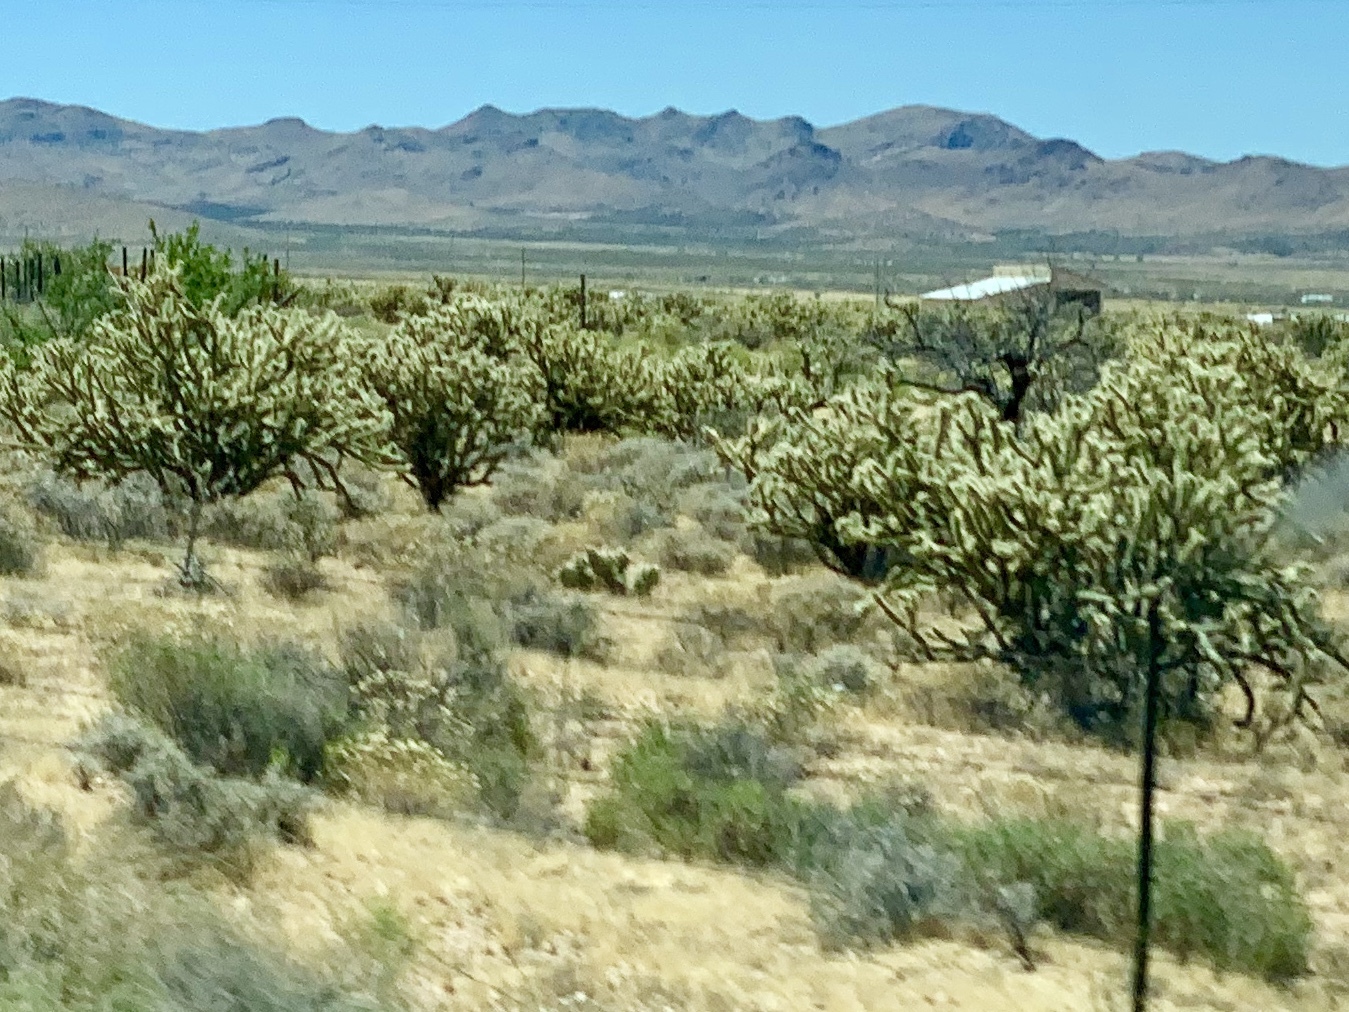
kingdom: Plantae
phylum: Tracheophyta
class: Magnoliopsida
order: Caryophyllales
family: Cactaceae
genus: Cylindropuntia
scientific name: Cylindropuntia acanthocarpa
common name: Buckhorn cholla
